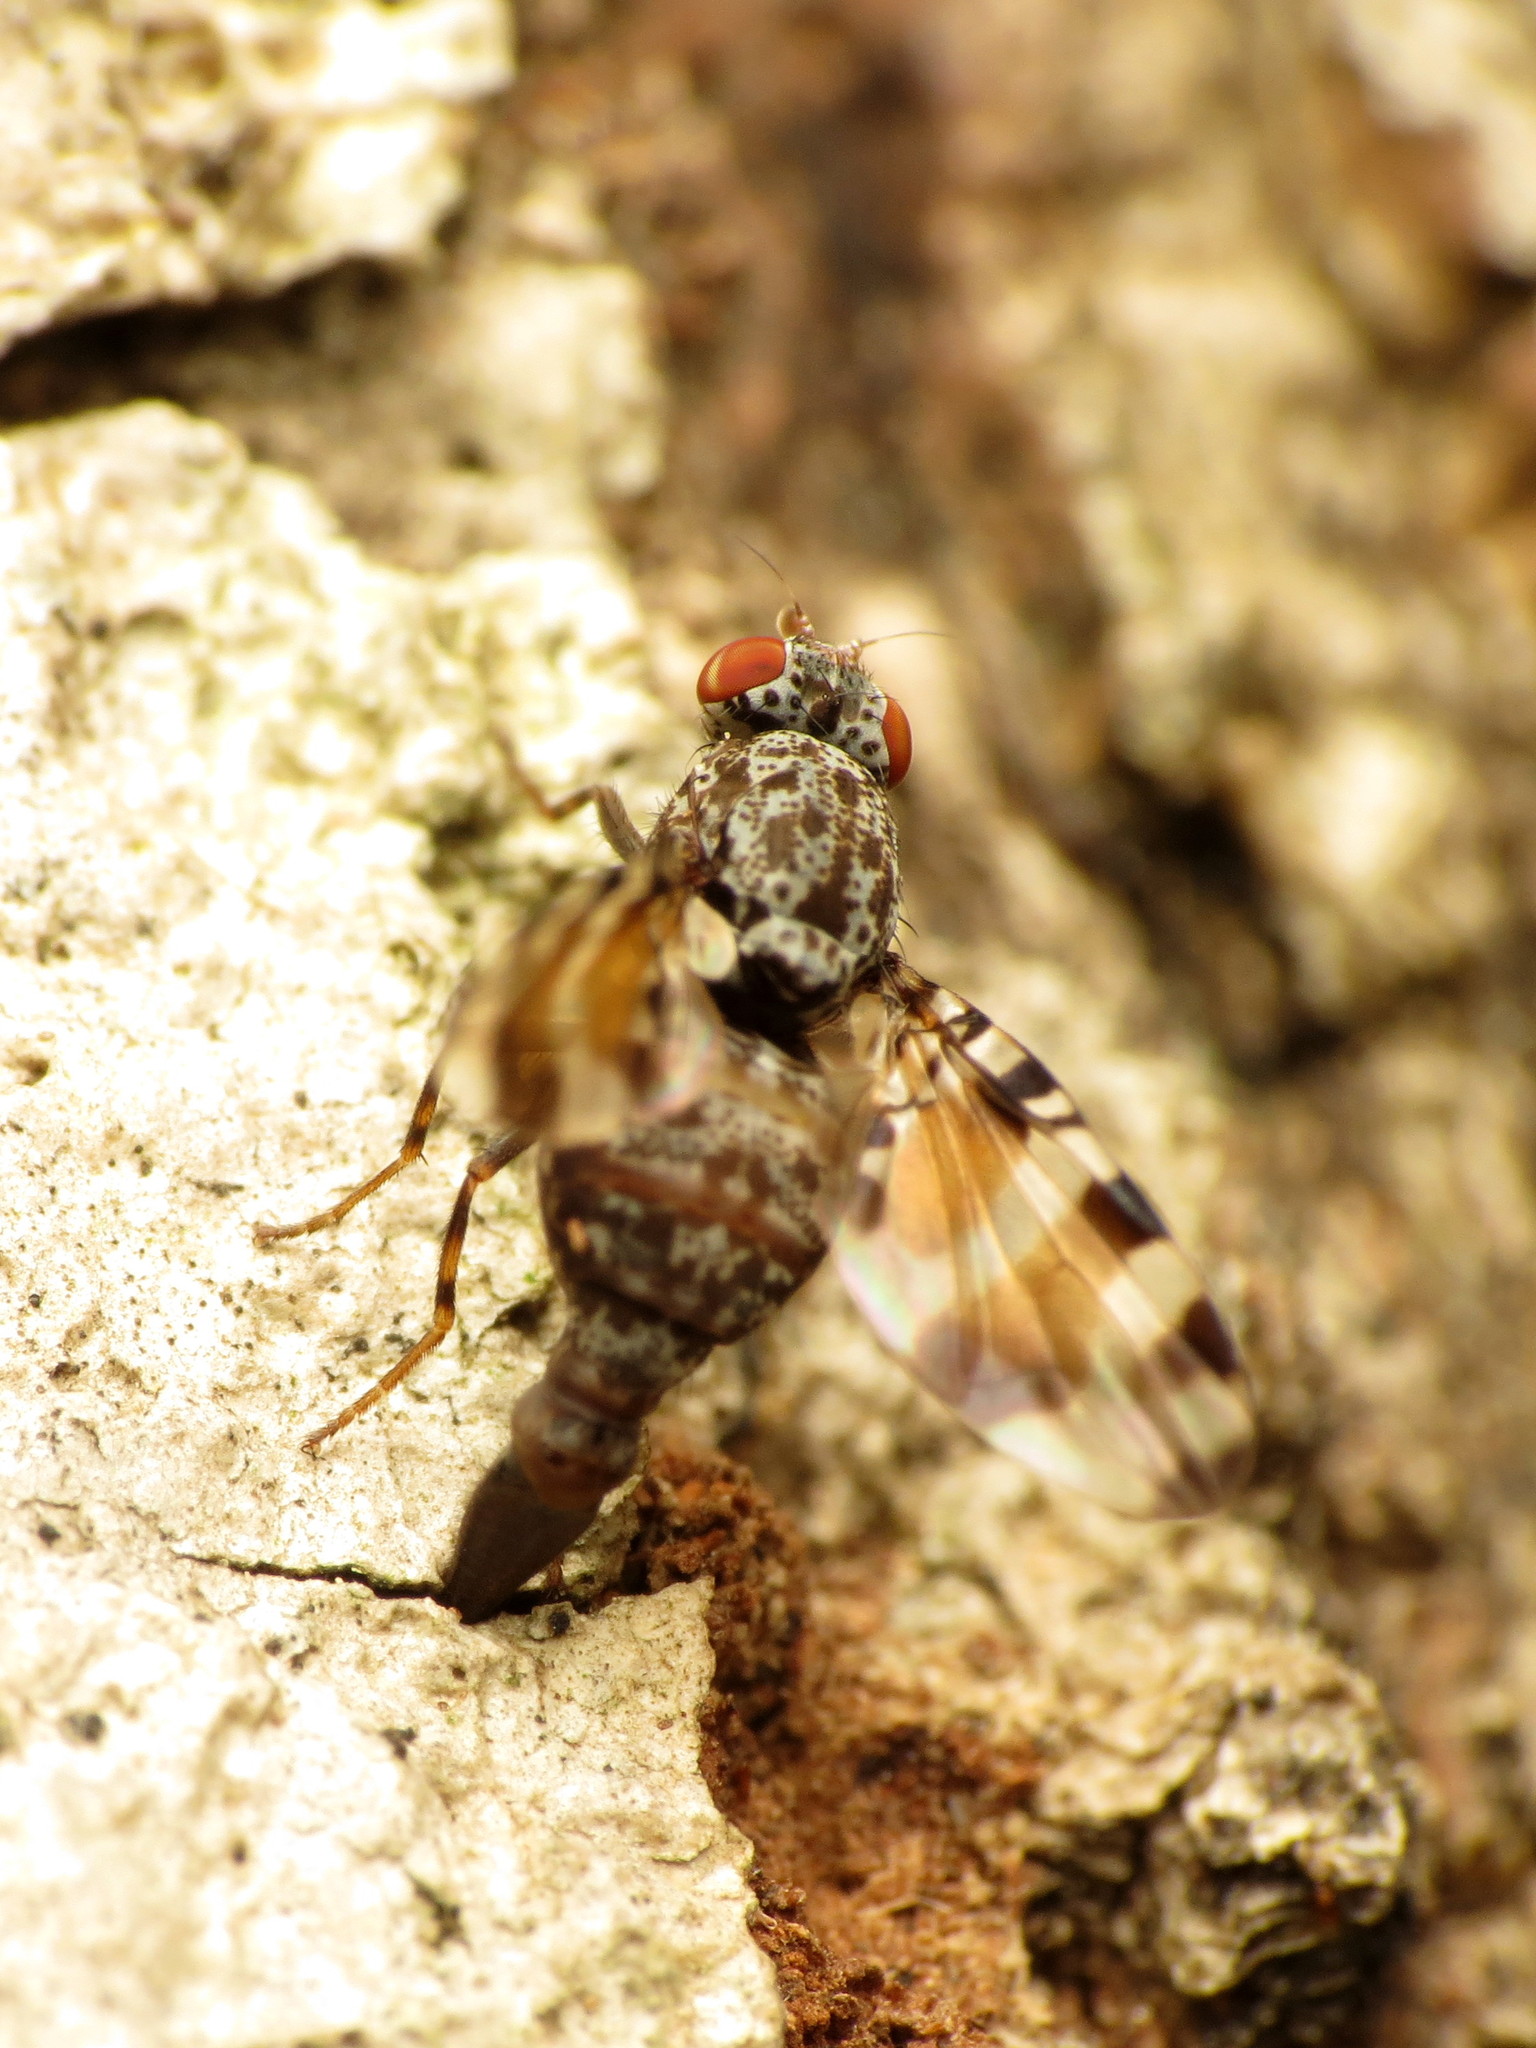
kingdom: Animalia
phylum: Arthropoda
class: Insecta
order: Diptera
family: Ulidiidae
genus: Pseudotephritis
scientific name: Pseudotephritis vau
